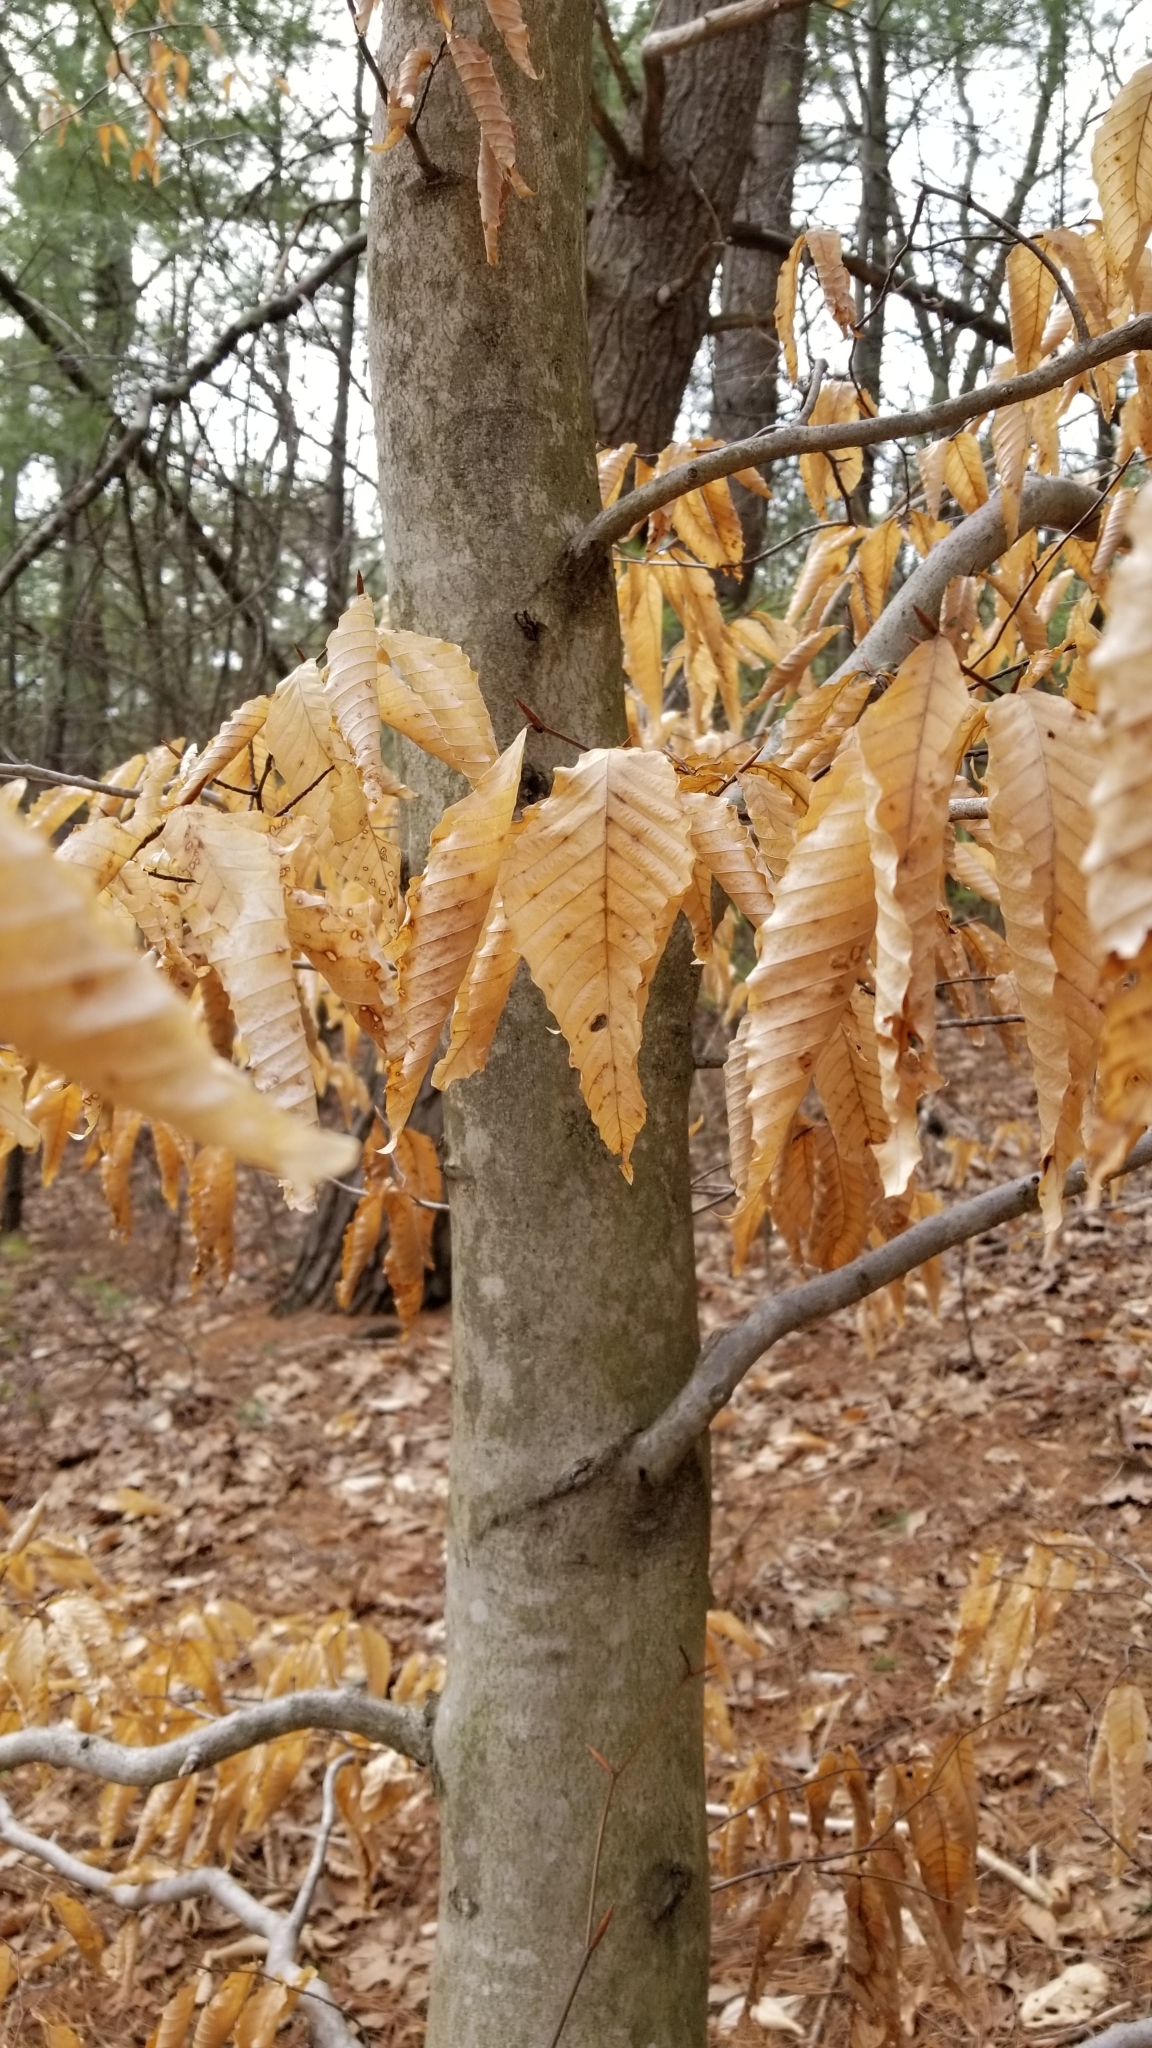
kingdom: Plantae
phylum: Tracheophyta
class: Magnoliopsida
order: Fagales
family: Fagaceae
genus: Fagus
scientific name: Fagus grandifolia
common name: American beech
